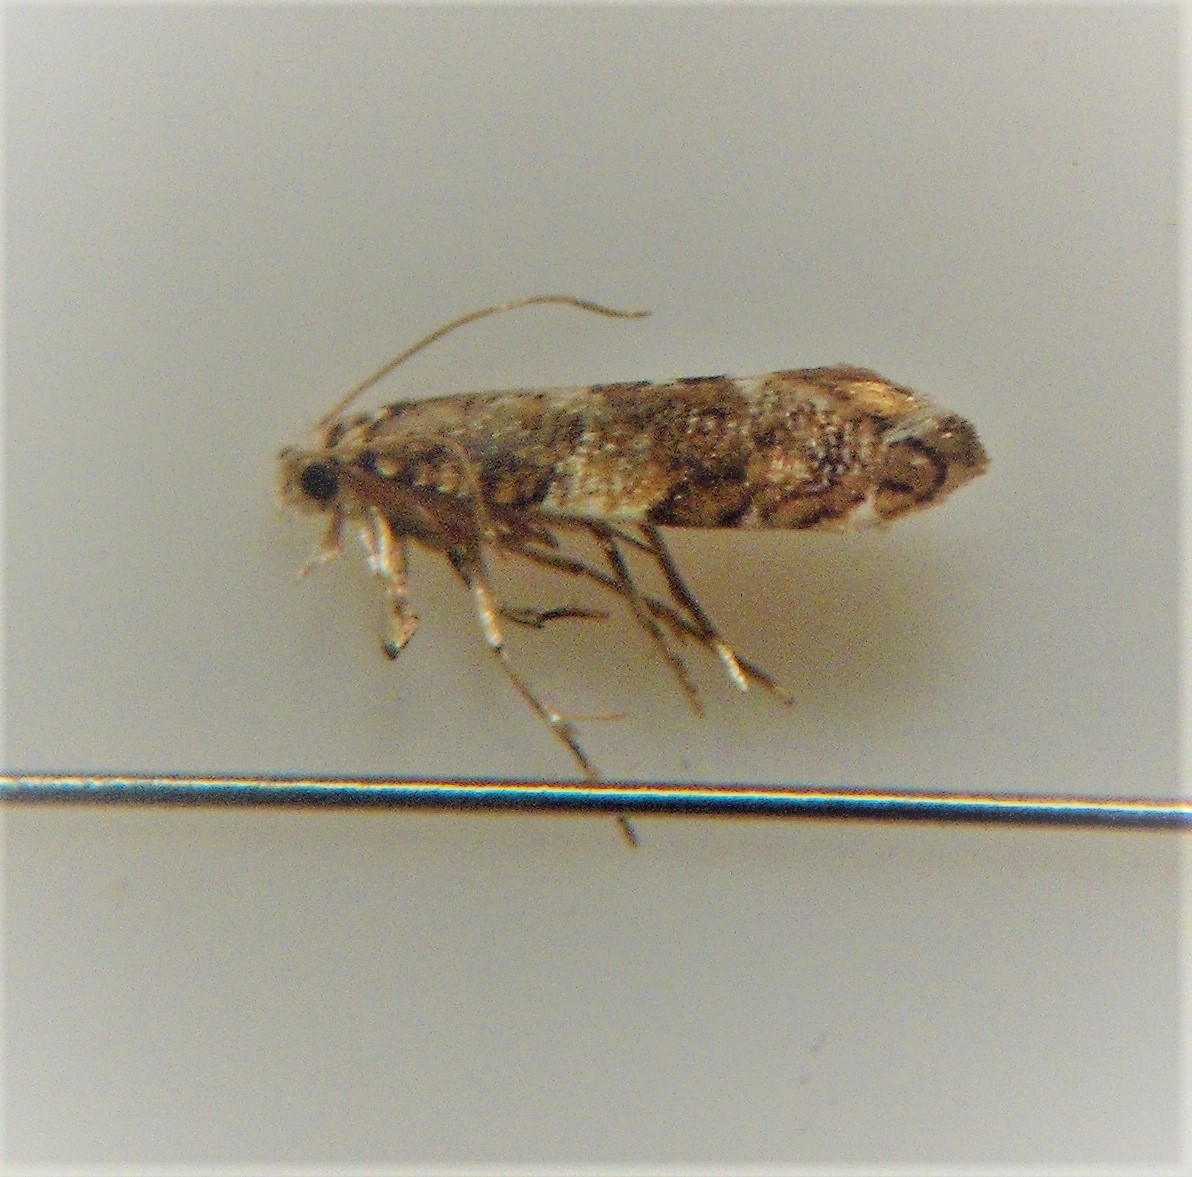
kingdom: Animalia
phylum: Arthropoda
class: Insecta
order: Lepidoptera
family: Tineidae
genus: Eschatotypa
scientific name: Eschatotypa derogatella
